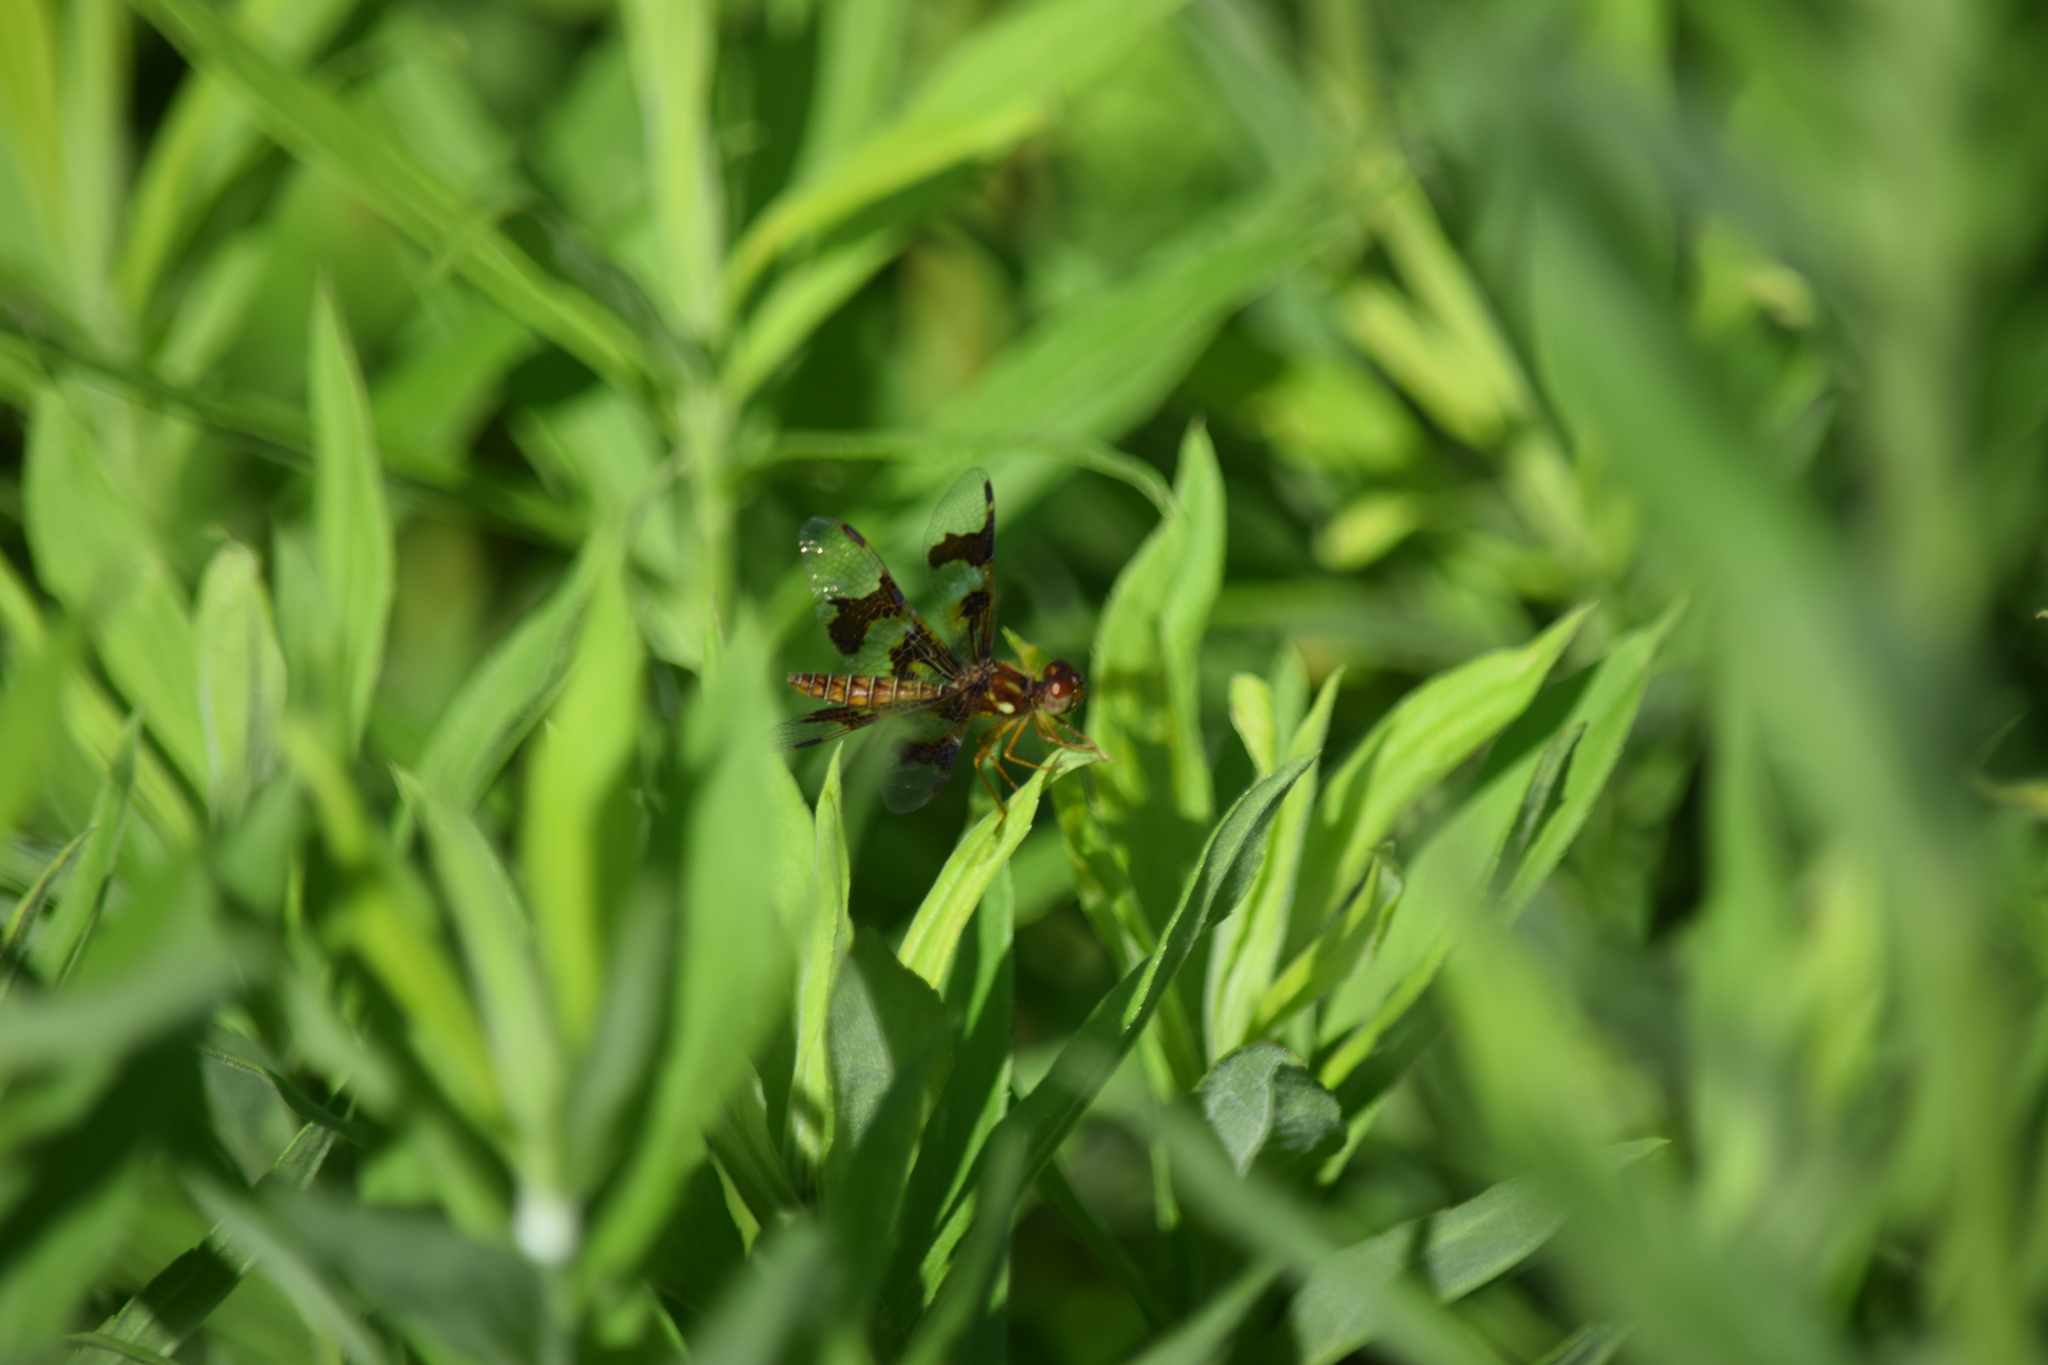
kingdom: Animalia
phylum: Arthropoda
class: Insecta
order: Odonata
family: Libellulidae
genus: Perithemis
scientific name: Perithemis tenera
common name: Eastern amberwing
